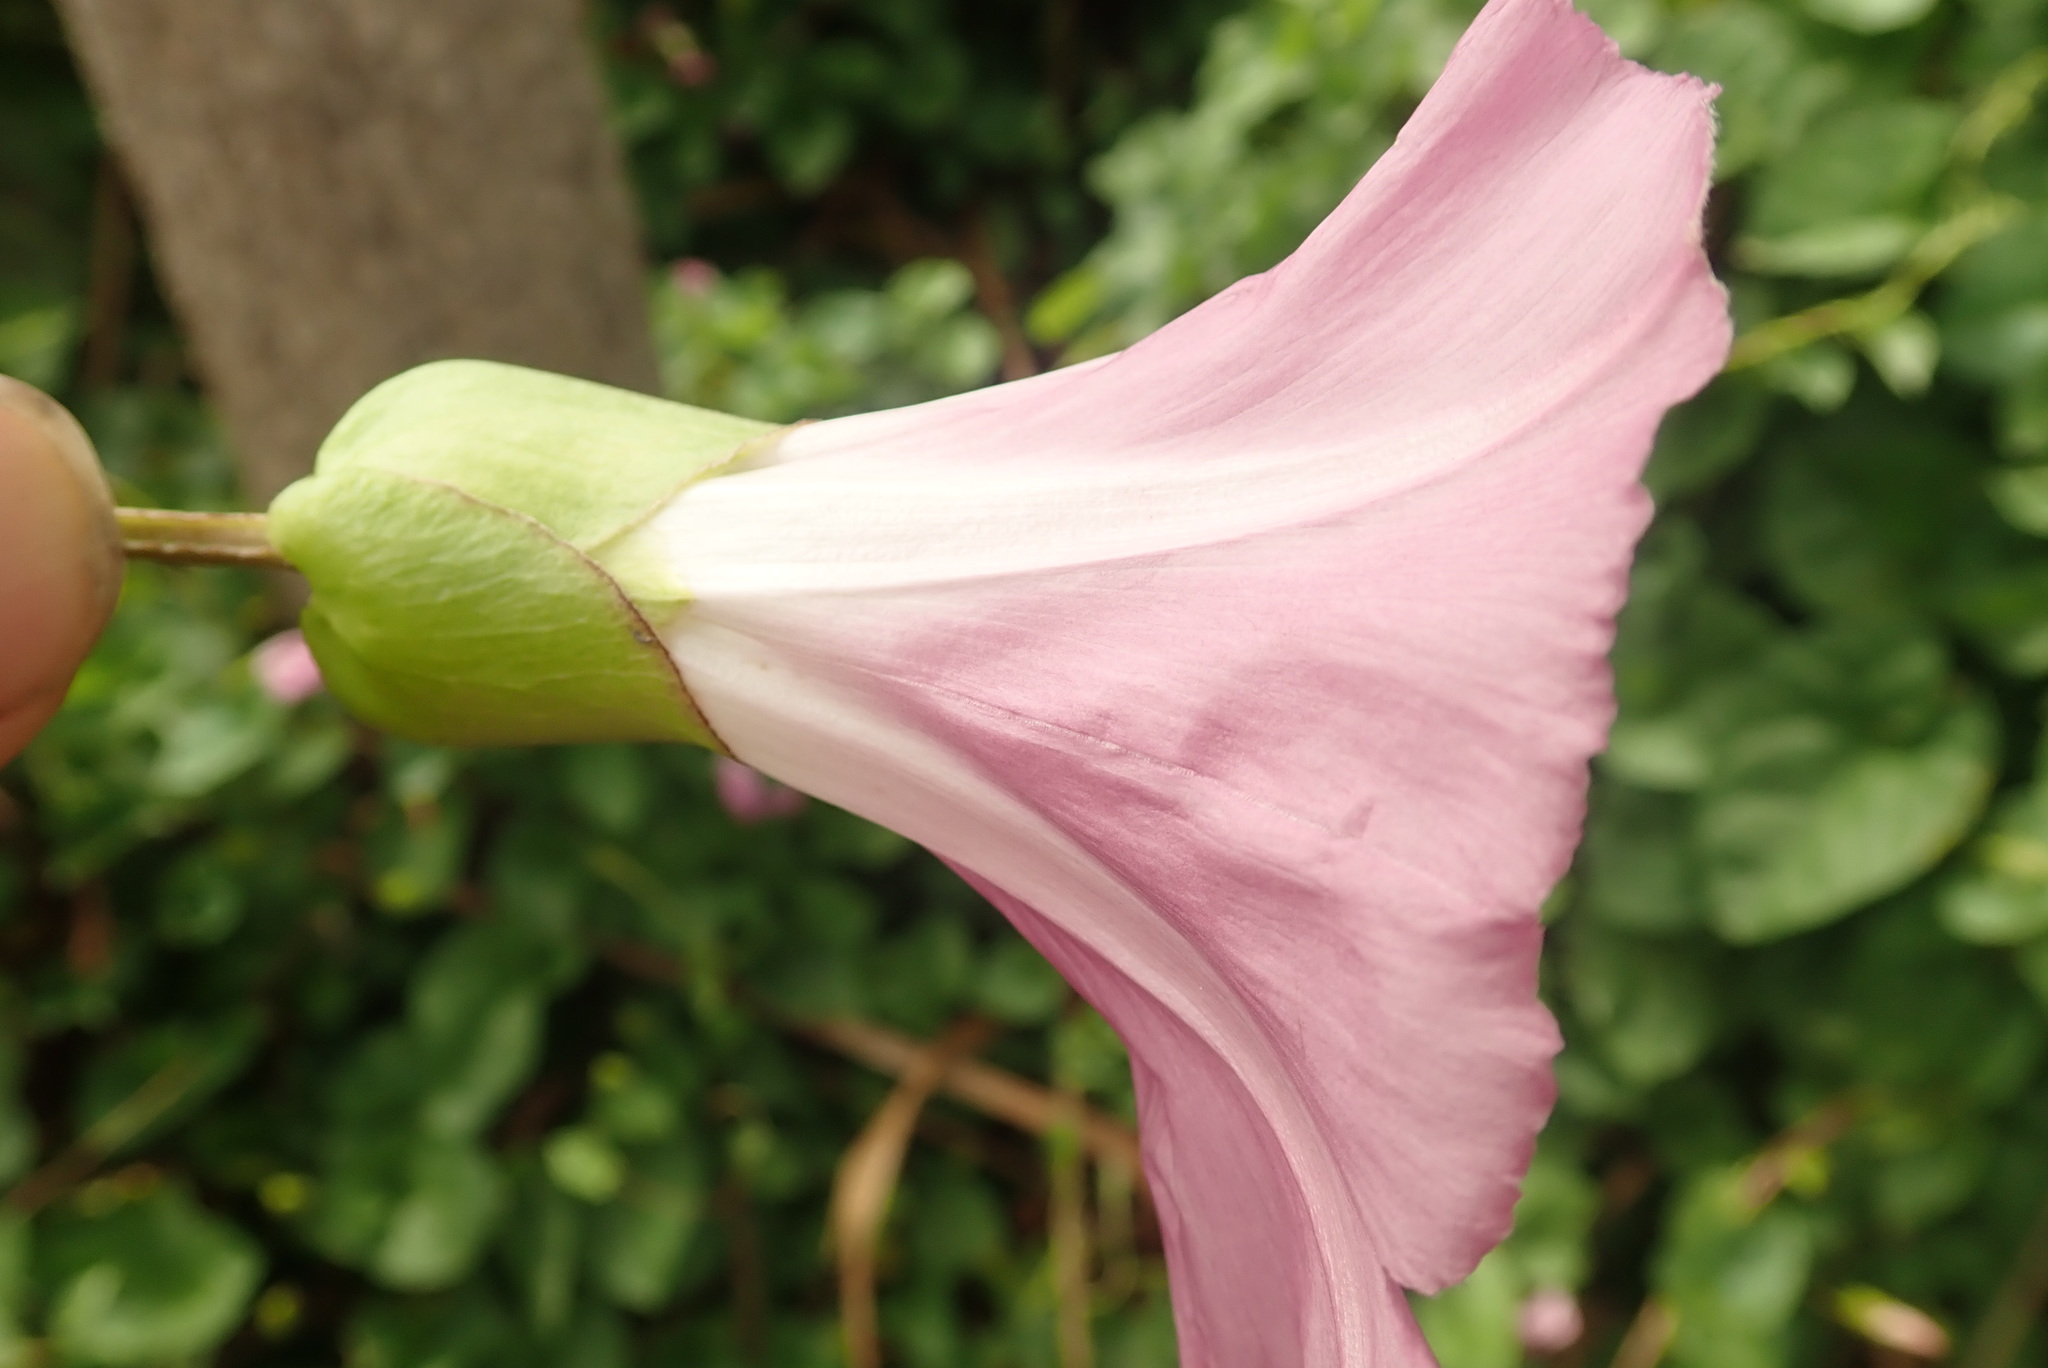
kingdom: Plantae
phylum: Tracheophyta
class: Magnoliopsida
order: Solanales
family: Convolvulaceae
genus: Calystegia
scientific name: Calystegia sepium
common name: Hedge bindweed
